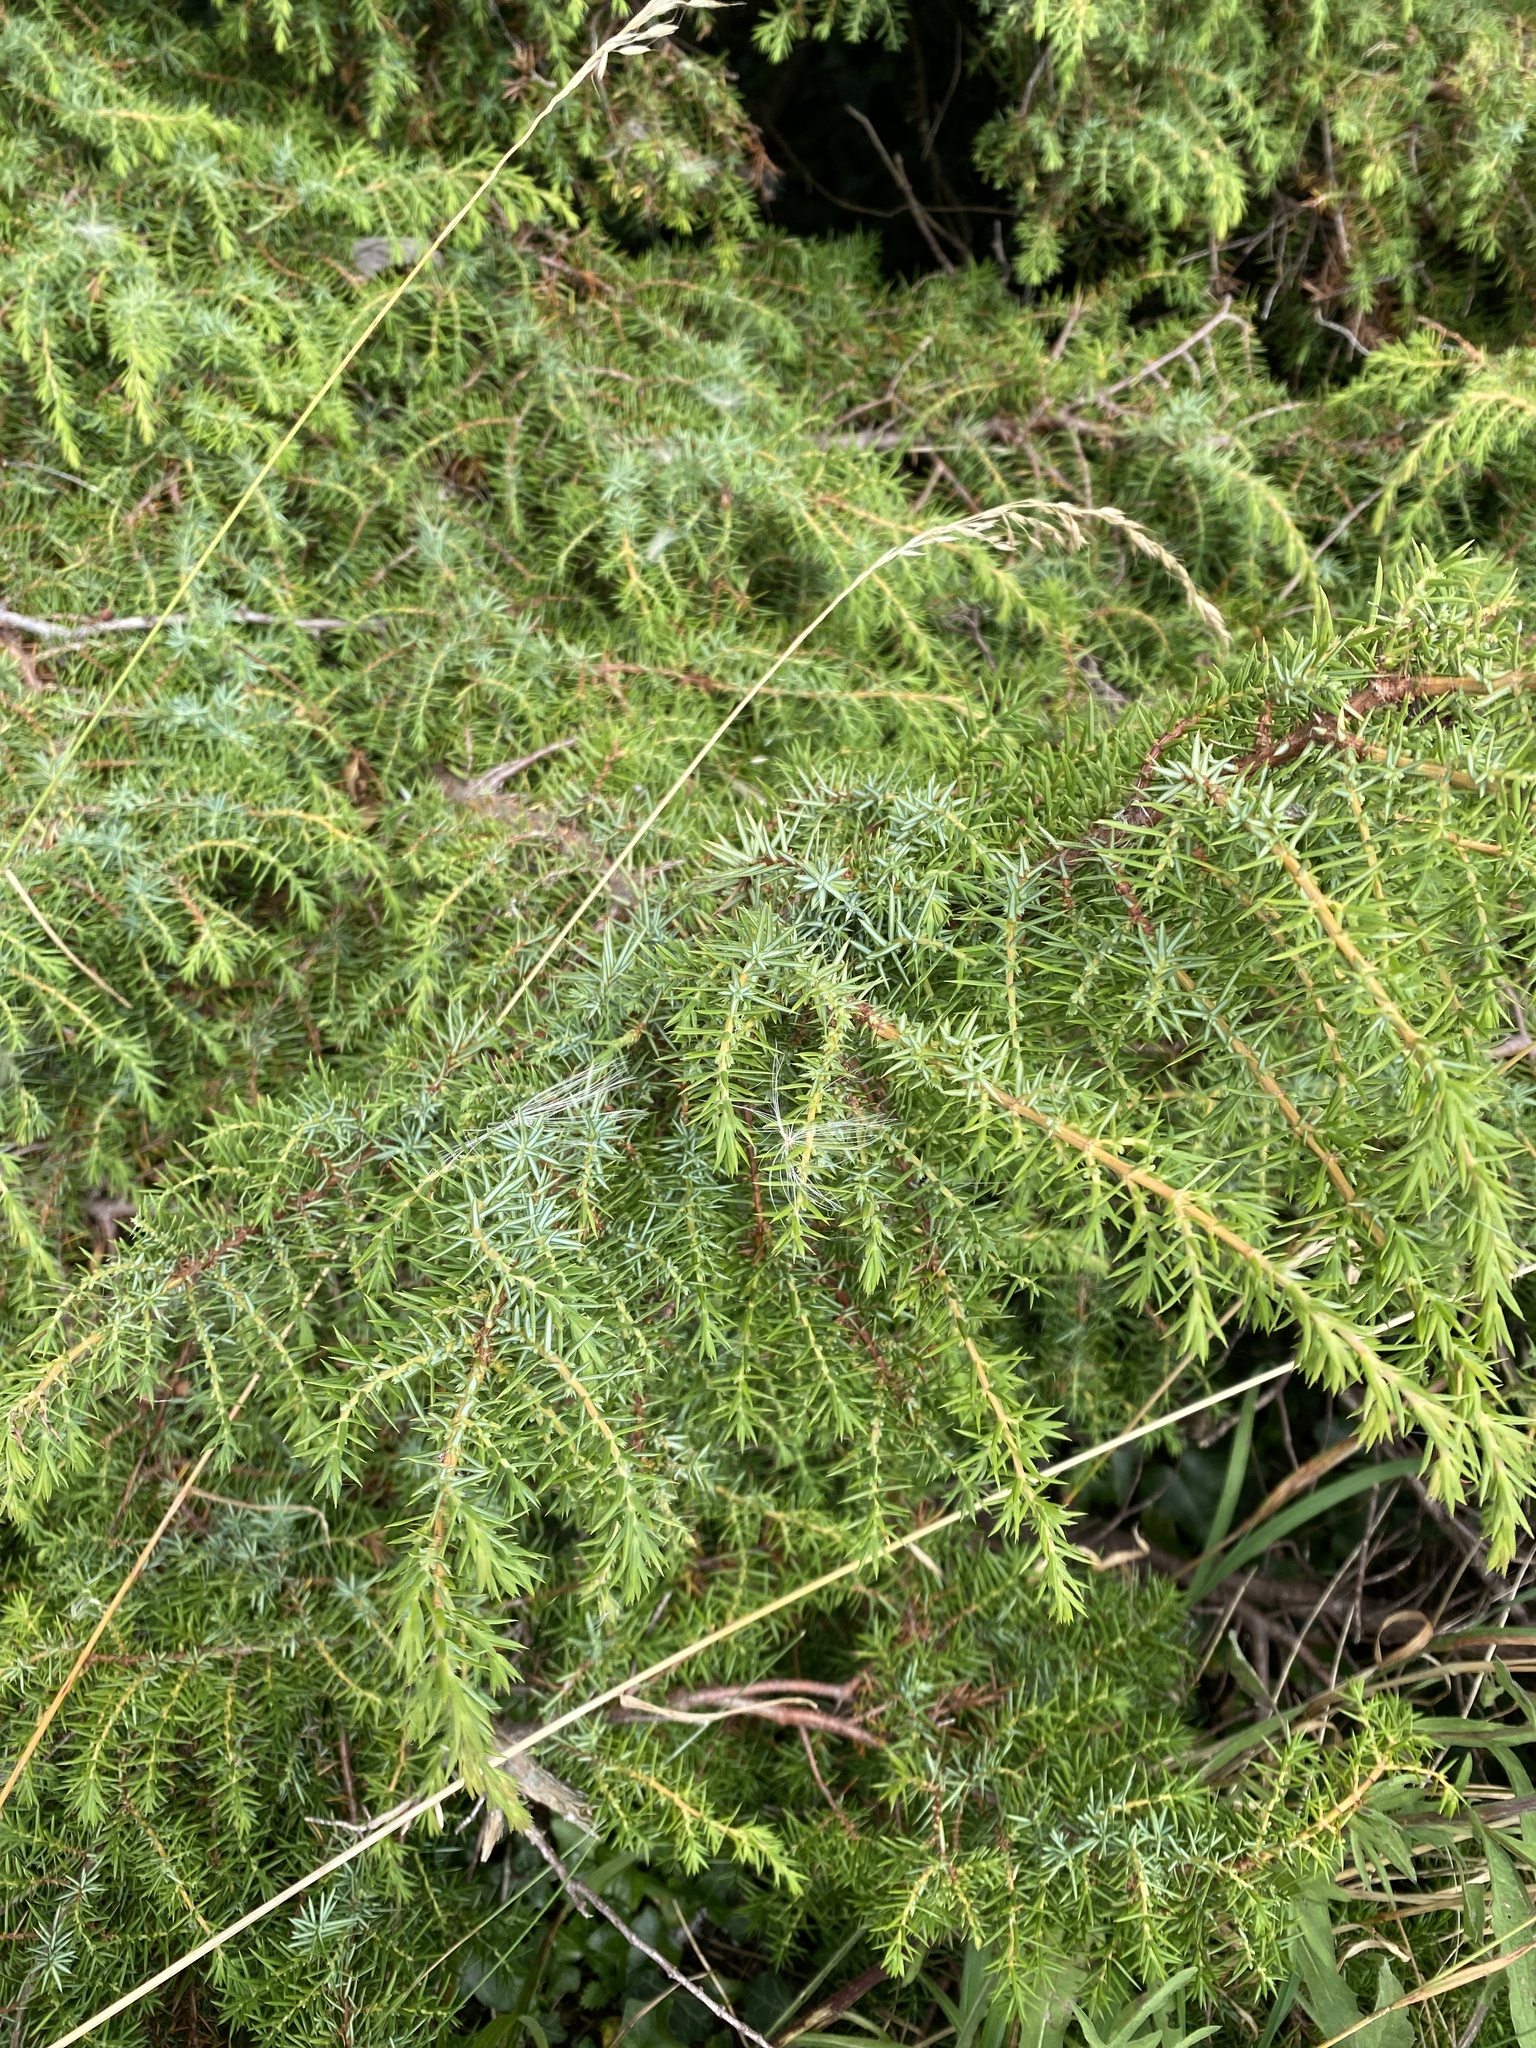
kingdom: Plantae
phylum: Tracheophyta
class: Pinopsida
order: Pinales
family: Cupressaceae
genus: Juniperus
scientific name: Juniperus communis
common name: Common juniper
